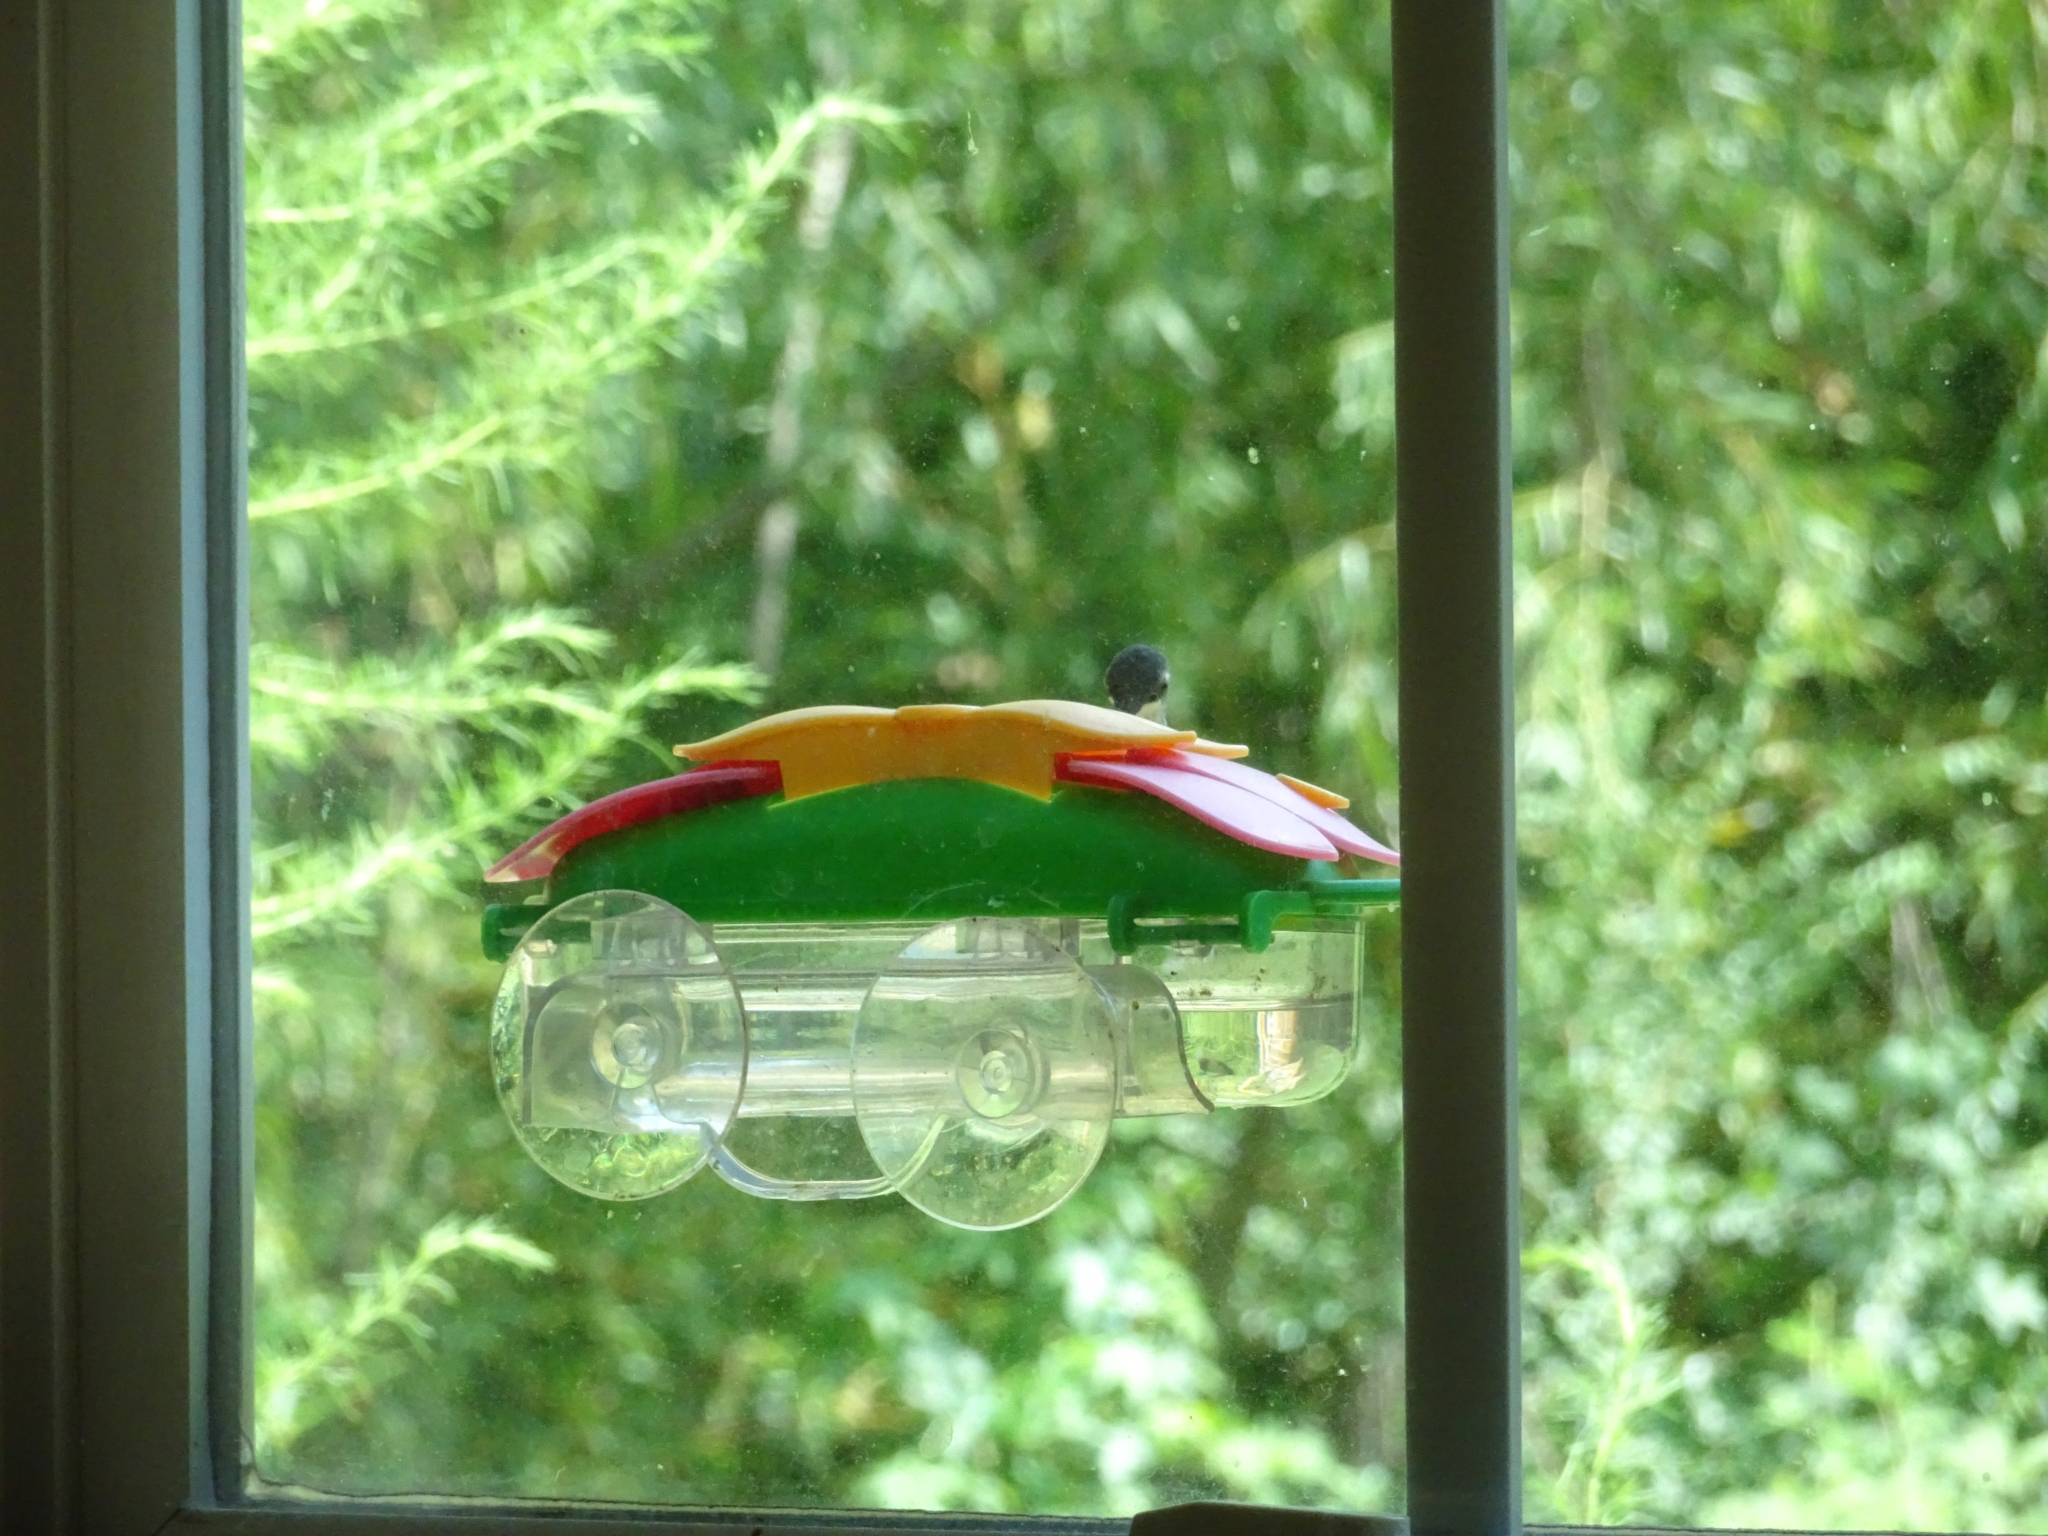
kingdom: Animalia
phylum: Chordata
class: Aves
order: Apodiformes
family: Trochilidae
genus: Archilochus
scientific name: Archilochus colubris
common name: Ruby-throated hummingbird
